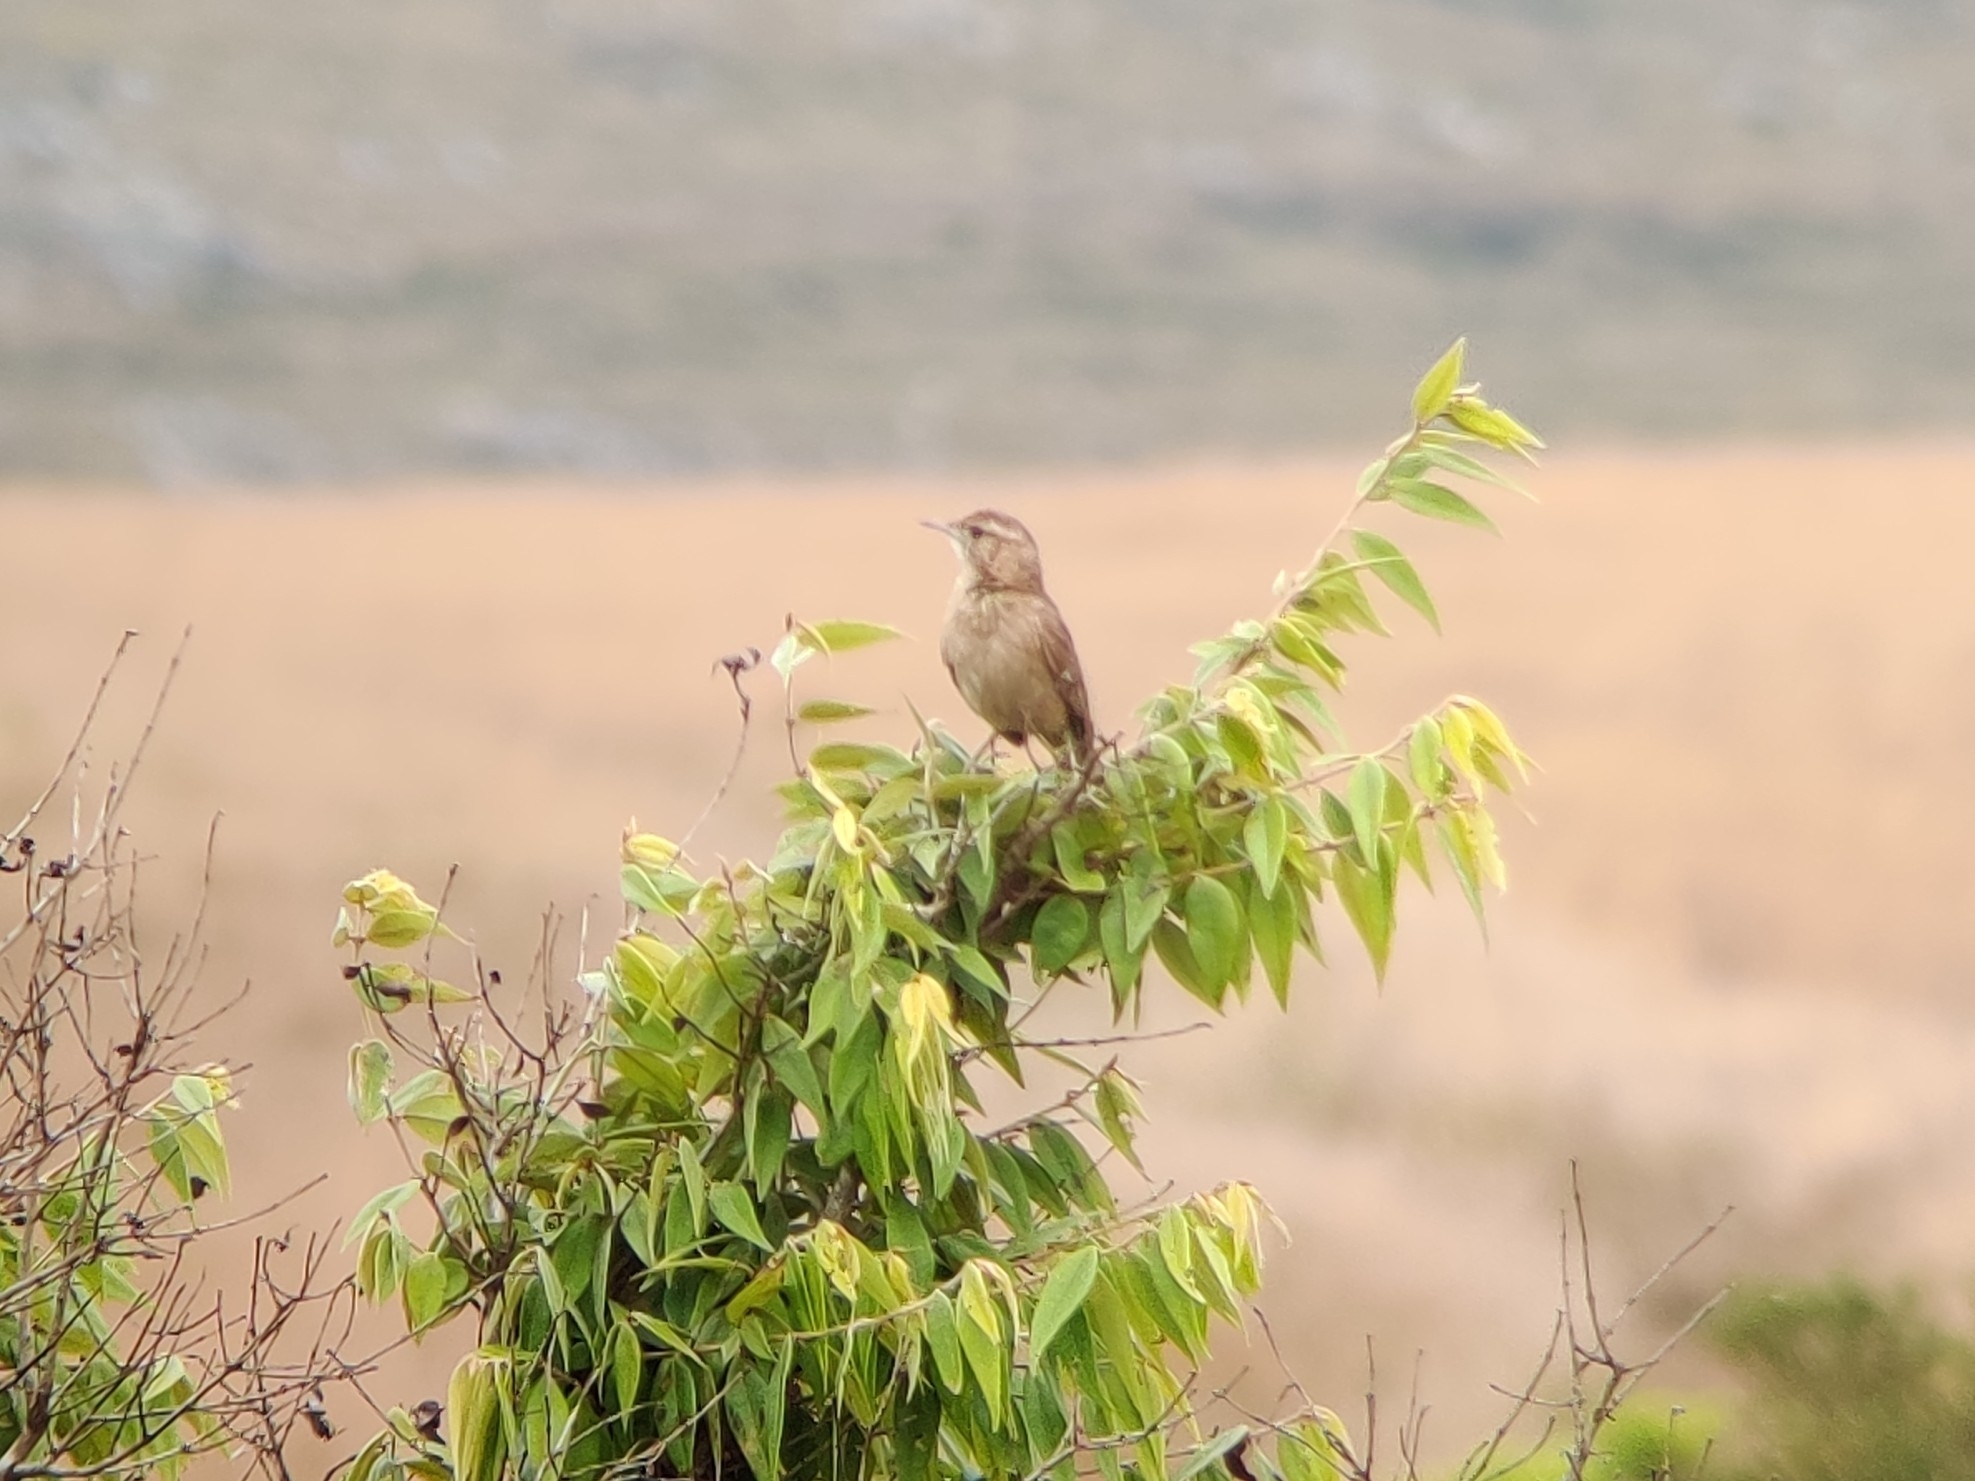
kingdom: Animalia
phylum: Chordata
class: Aves
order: Passeriformes
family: Furnariidae
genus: Anumbius
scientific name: Anumbius annumbi
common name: Firewood-gatherer
